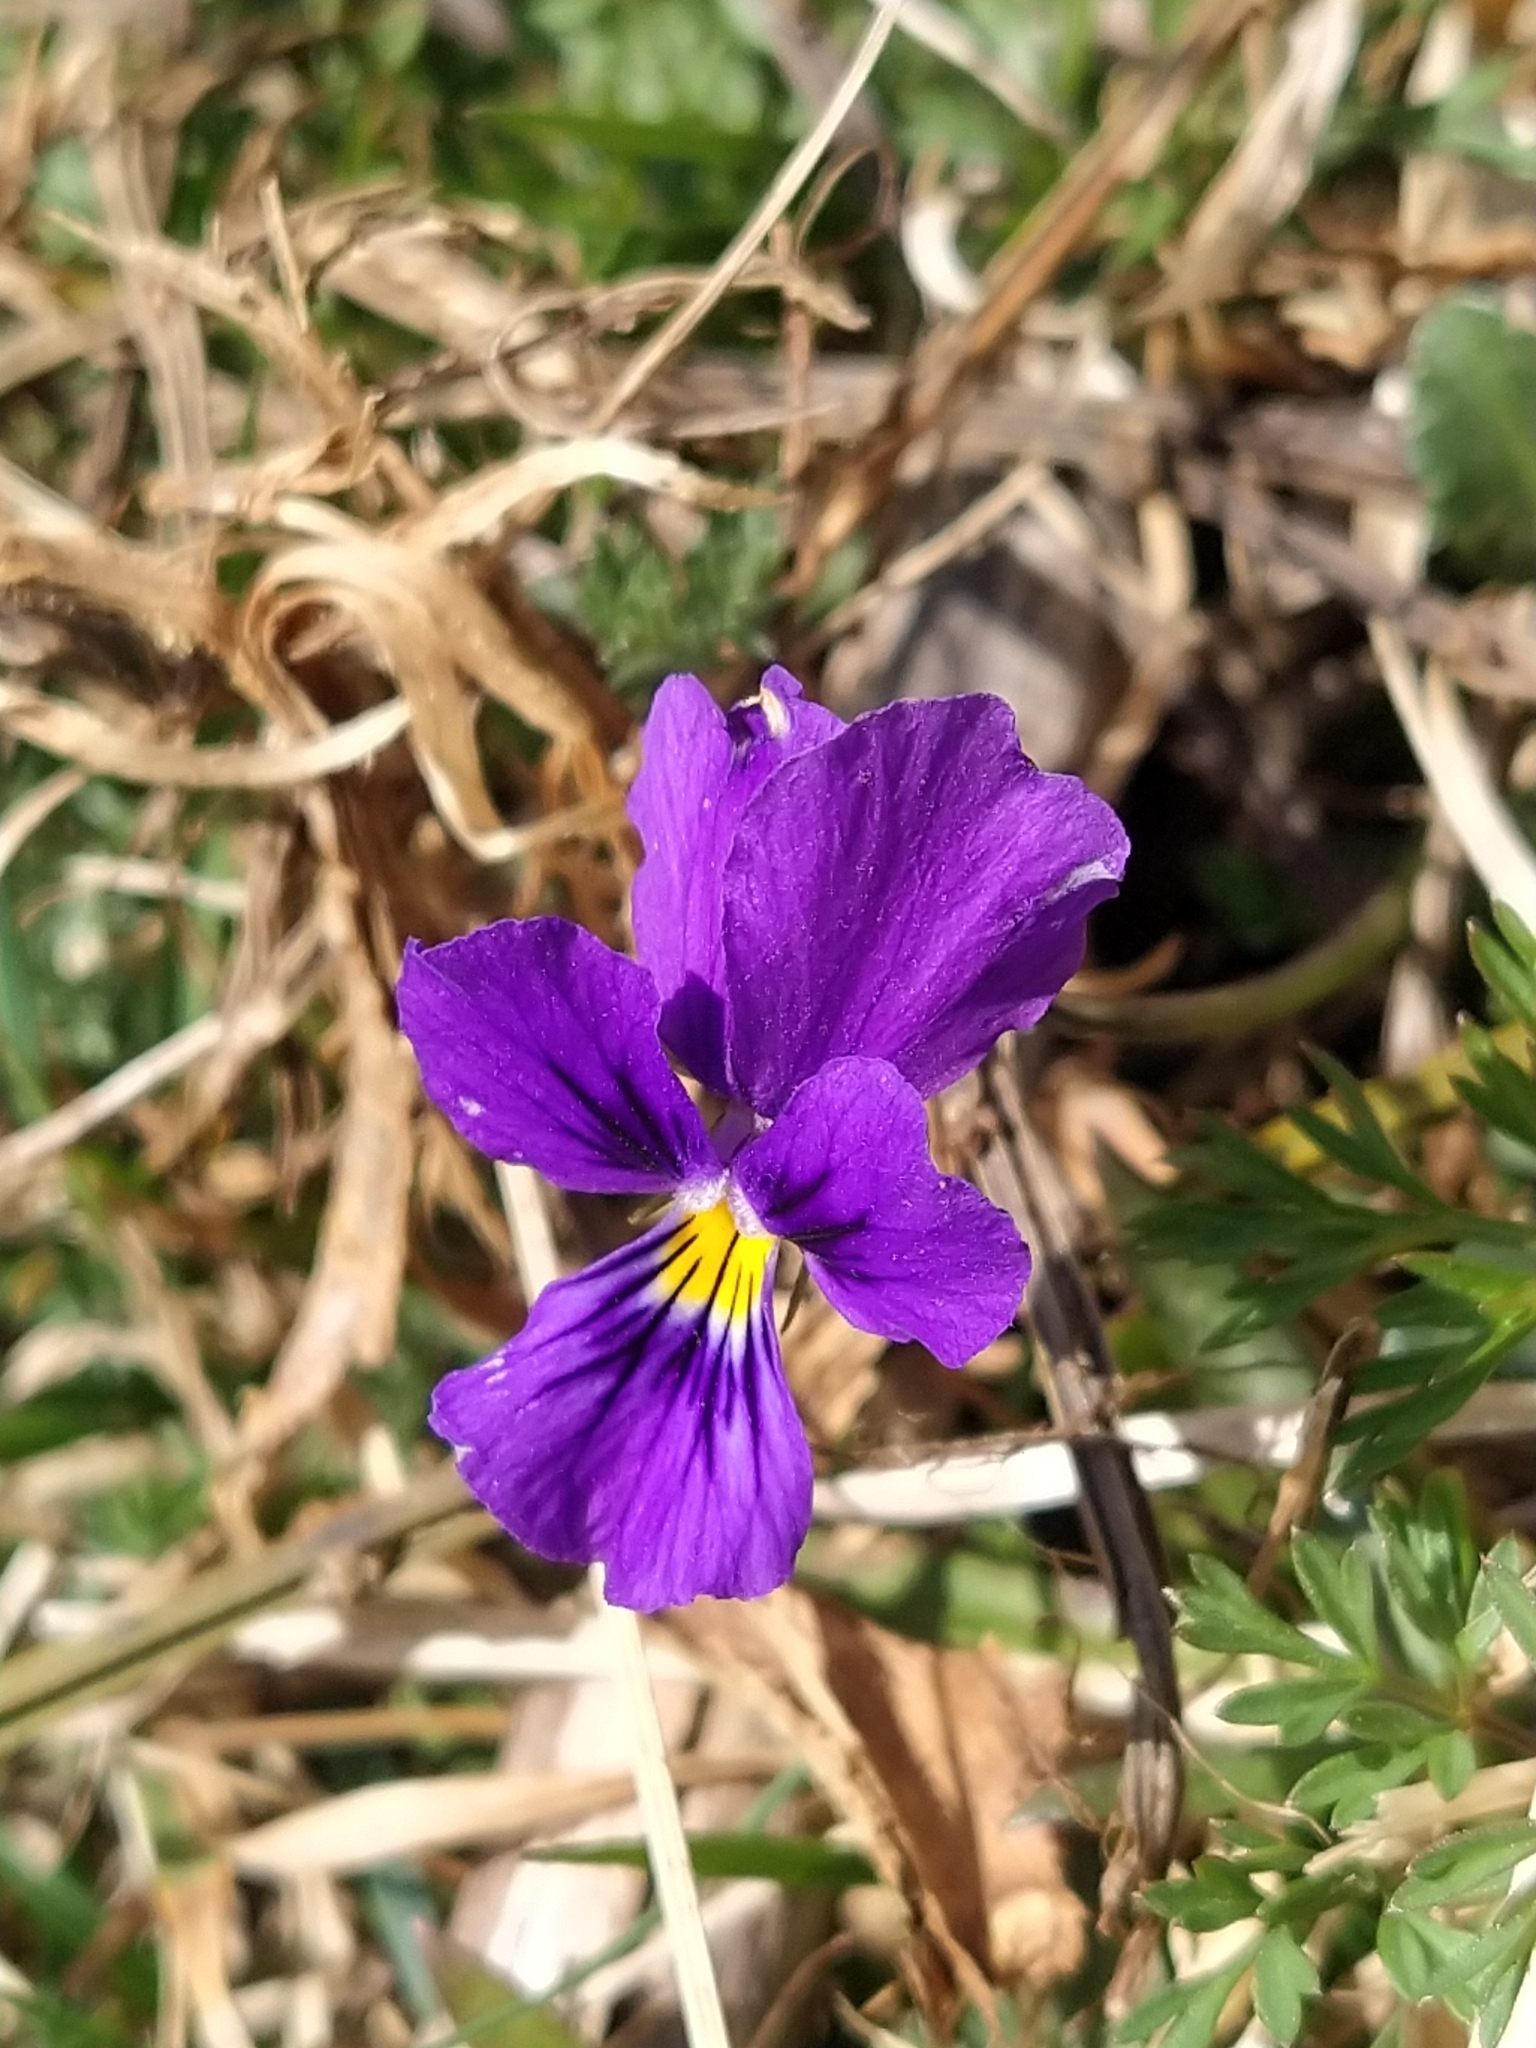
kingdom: Plantae
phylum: Tracheophyta
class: Magnoliopsida
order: Malpighiales
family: Violaceae
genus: Viola
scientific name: Viola lutea
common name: Mountain pansy
